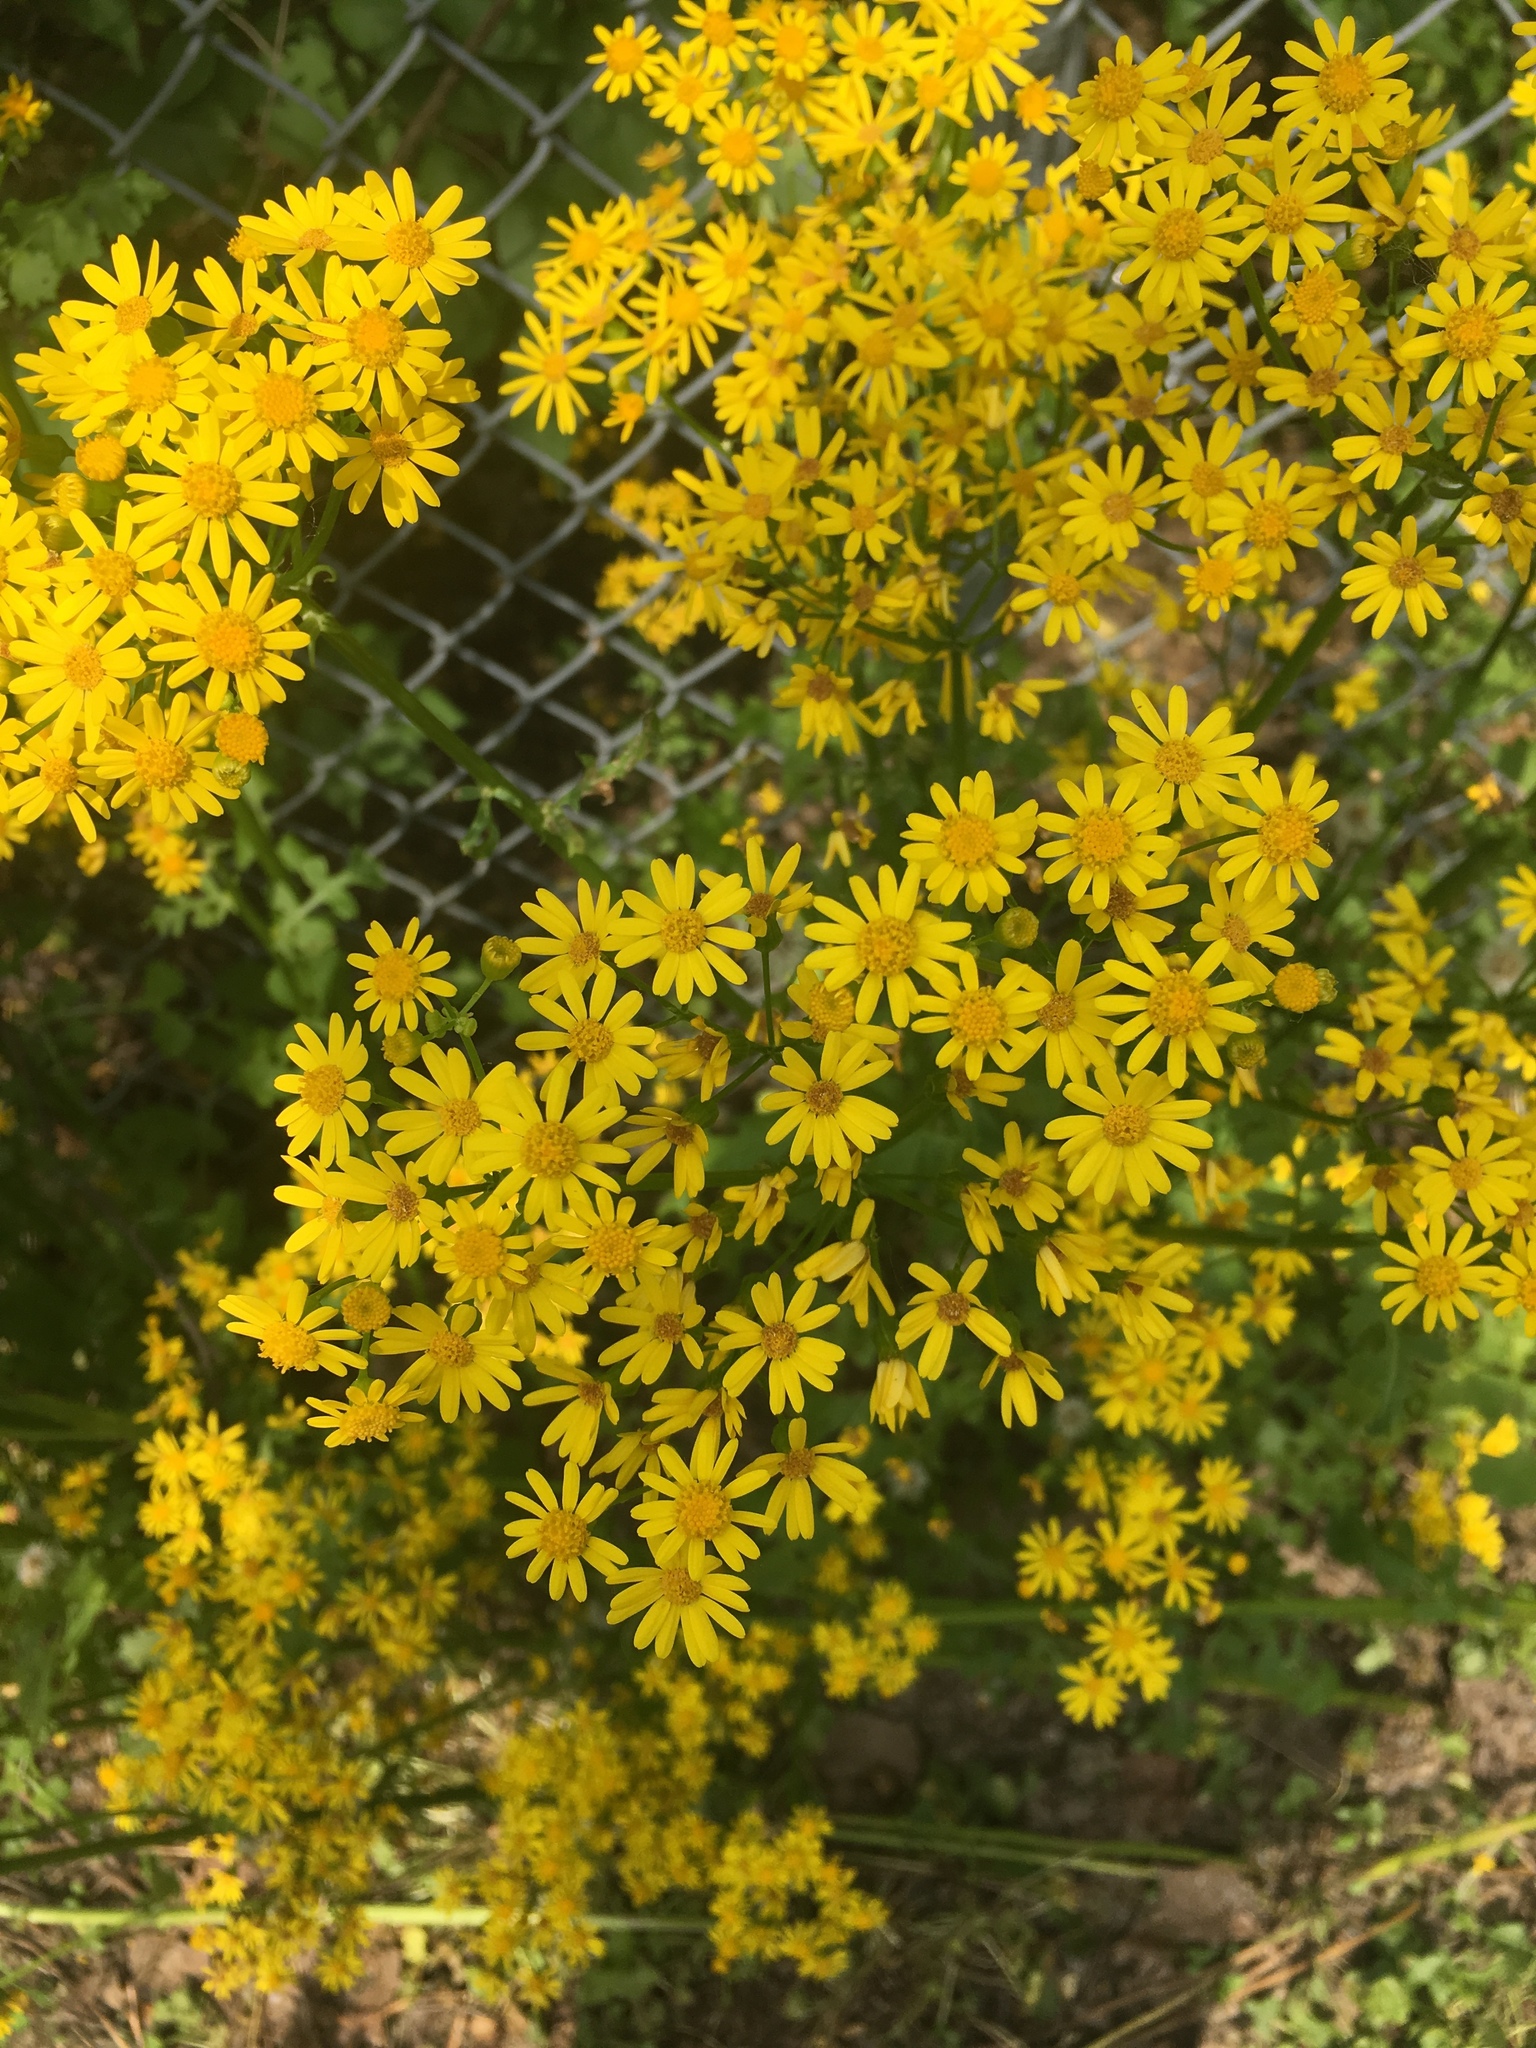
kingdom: Plantae
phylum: Tracheophyta
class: Magnoliopsida
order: Asterales
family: Asteraceae
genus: Packera
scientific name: Packera glabella
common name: Butterweed
